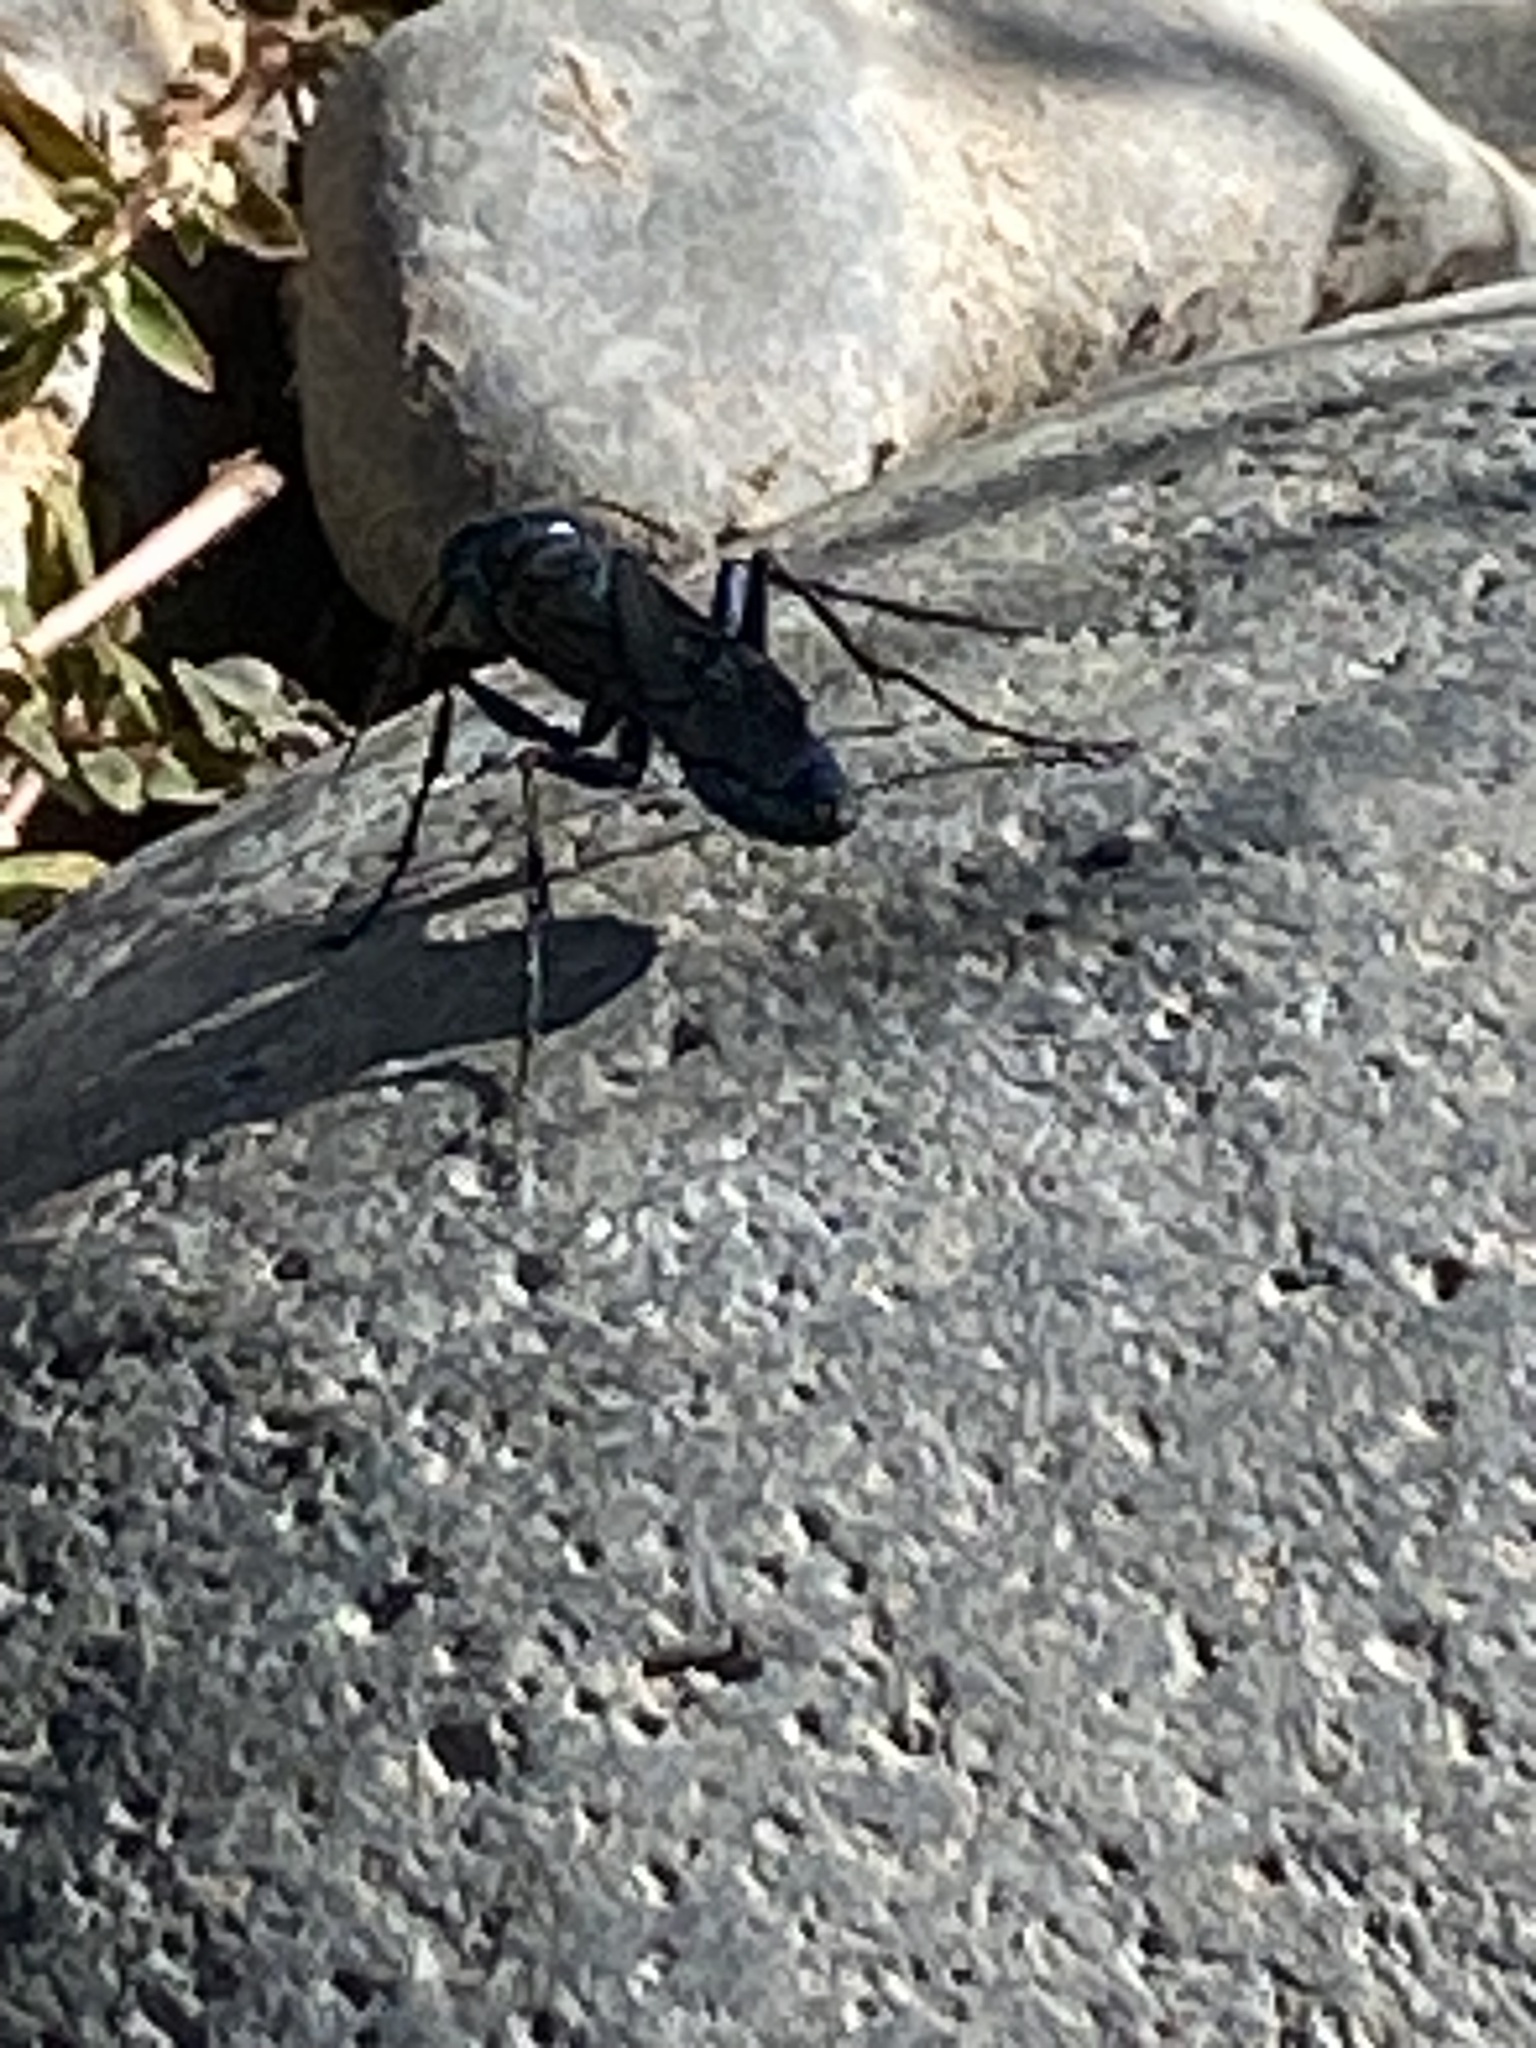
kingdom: Animalia
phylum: Arthropoda
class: Insecta
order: Hymenoptera
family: Sphecidae
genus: Chlorion
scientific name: Chlorion aerarium
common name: Steel-blue cricket hunter
